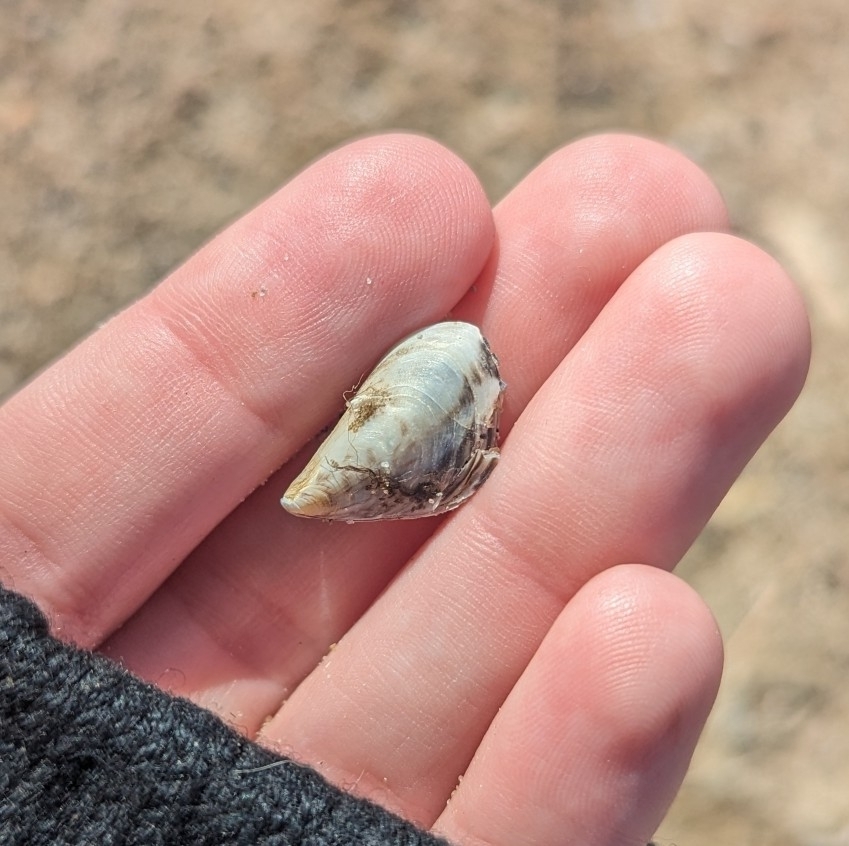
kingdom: Animalia
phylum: Mollusca
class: Bivalvia
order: Myida
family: Dreissenidae
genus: Dreissena
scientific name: Dreissena bugensis
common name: Quagga mussel
